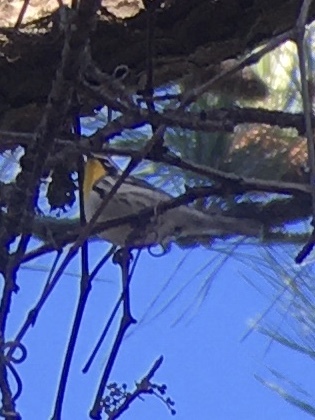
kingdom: Animalia
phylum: Chordata
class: Aves
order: Passeriformes
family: Parulidae
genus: Setophaga
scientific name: Setophaga dominica
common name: Yellow-throated warbler
